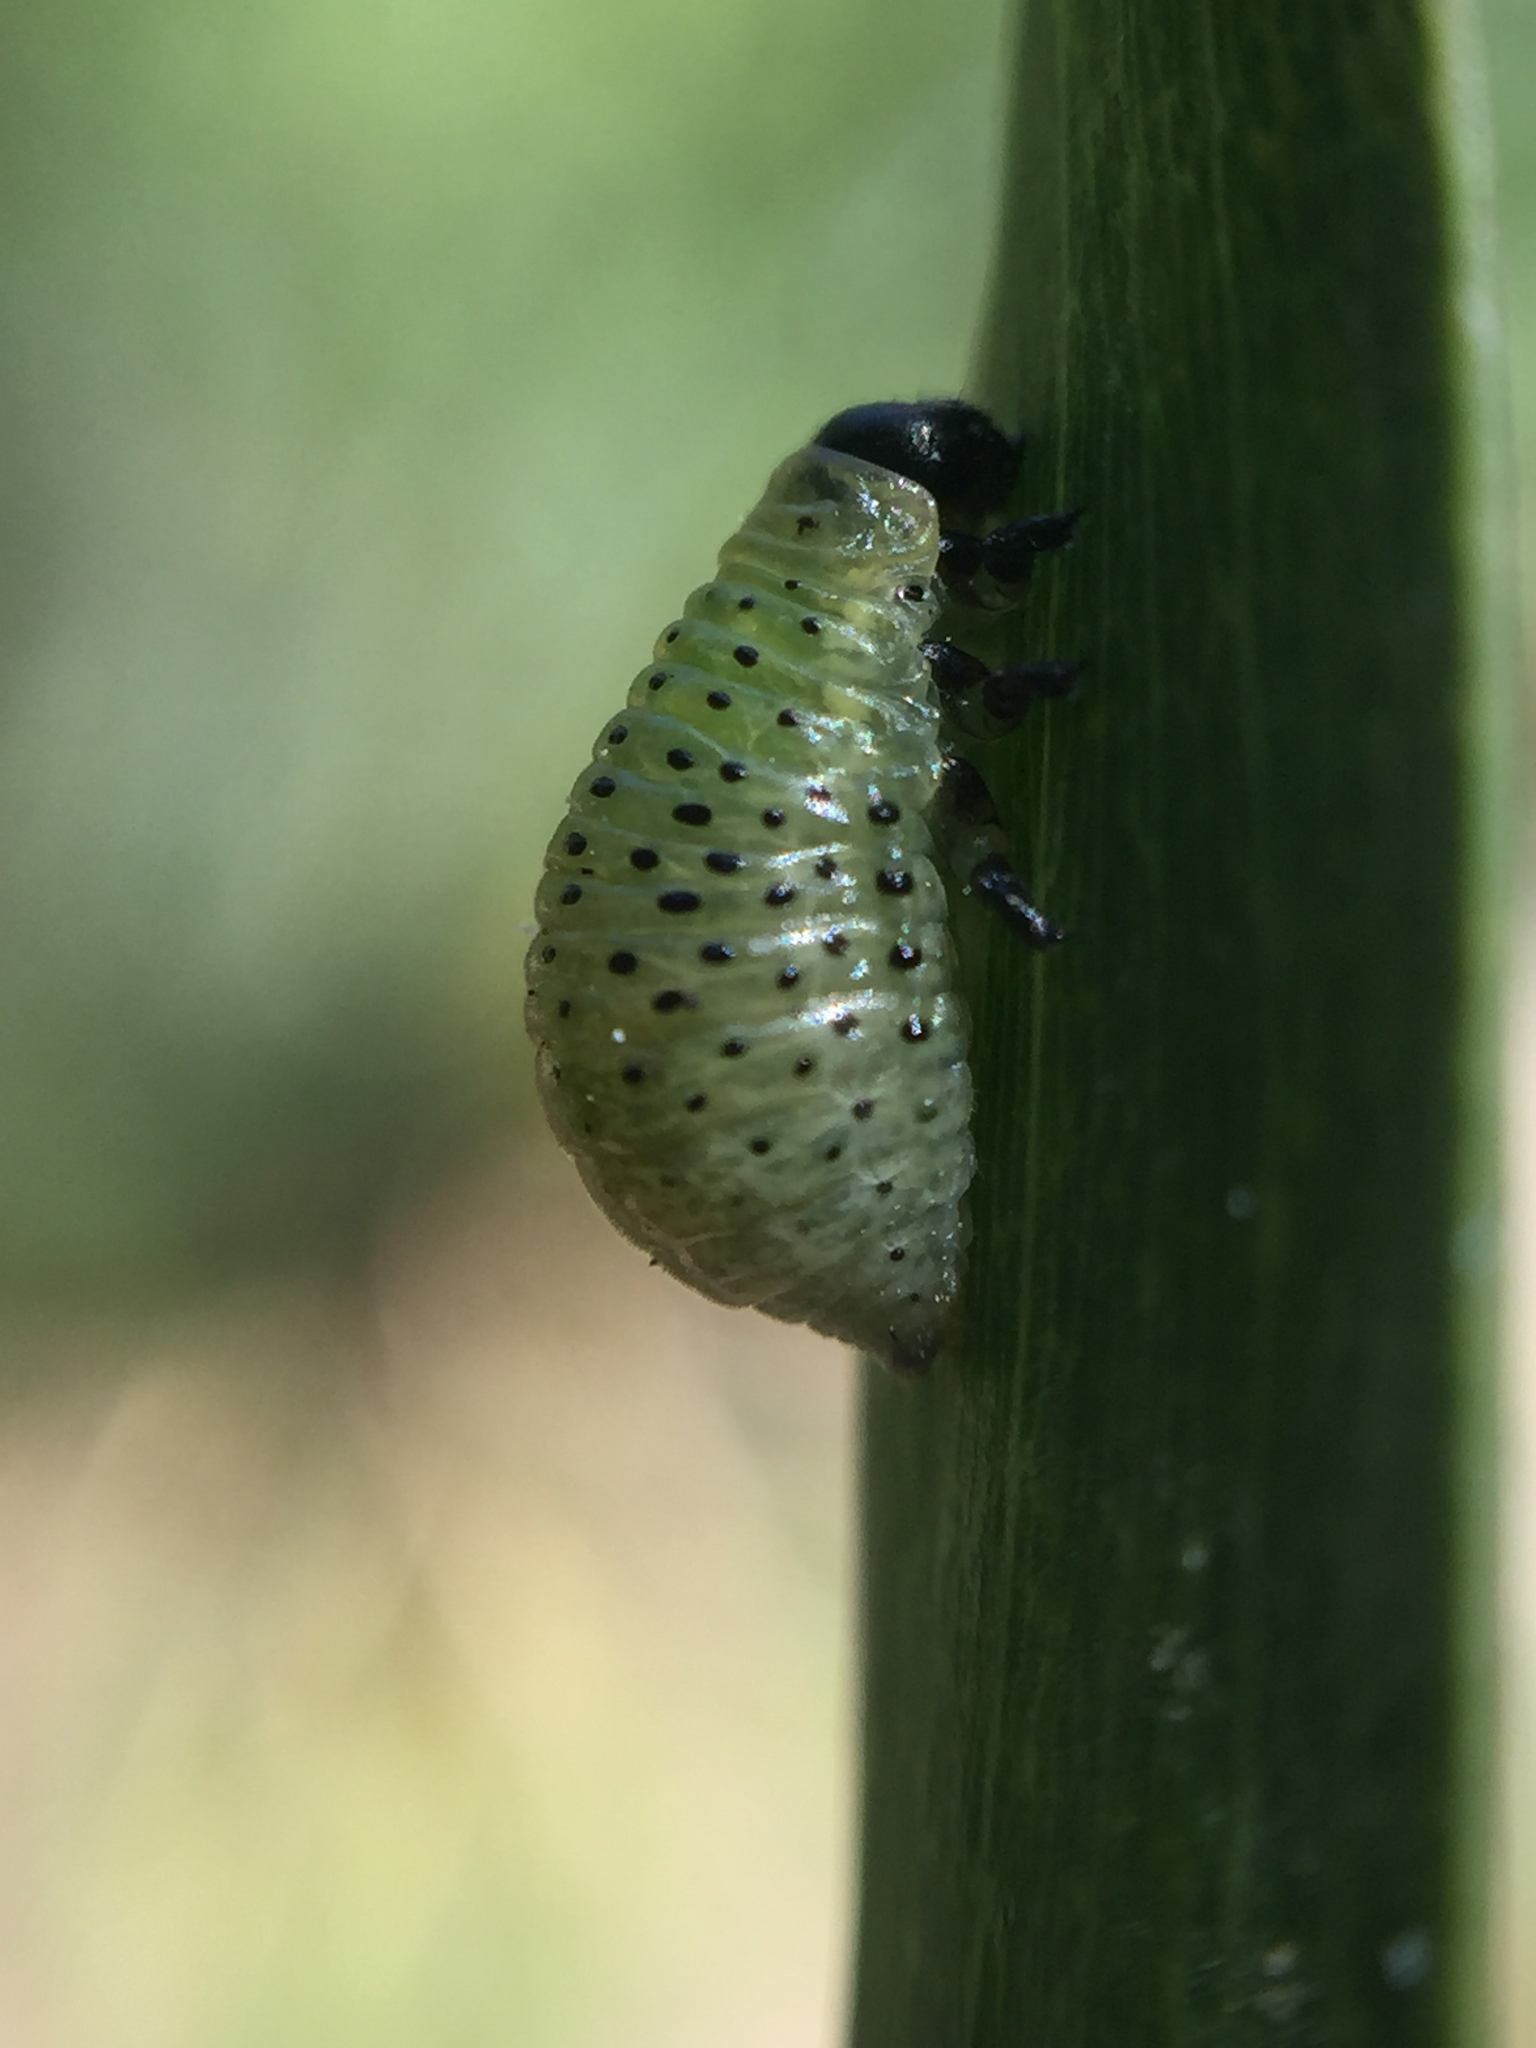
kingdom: Animalia
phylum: Arthropoda
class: Insecta
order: Coleoptera
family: Chrysomelidae
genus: Dicranosterna
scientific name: Dicranosterna
